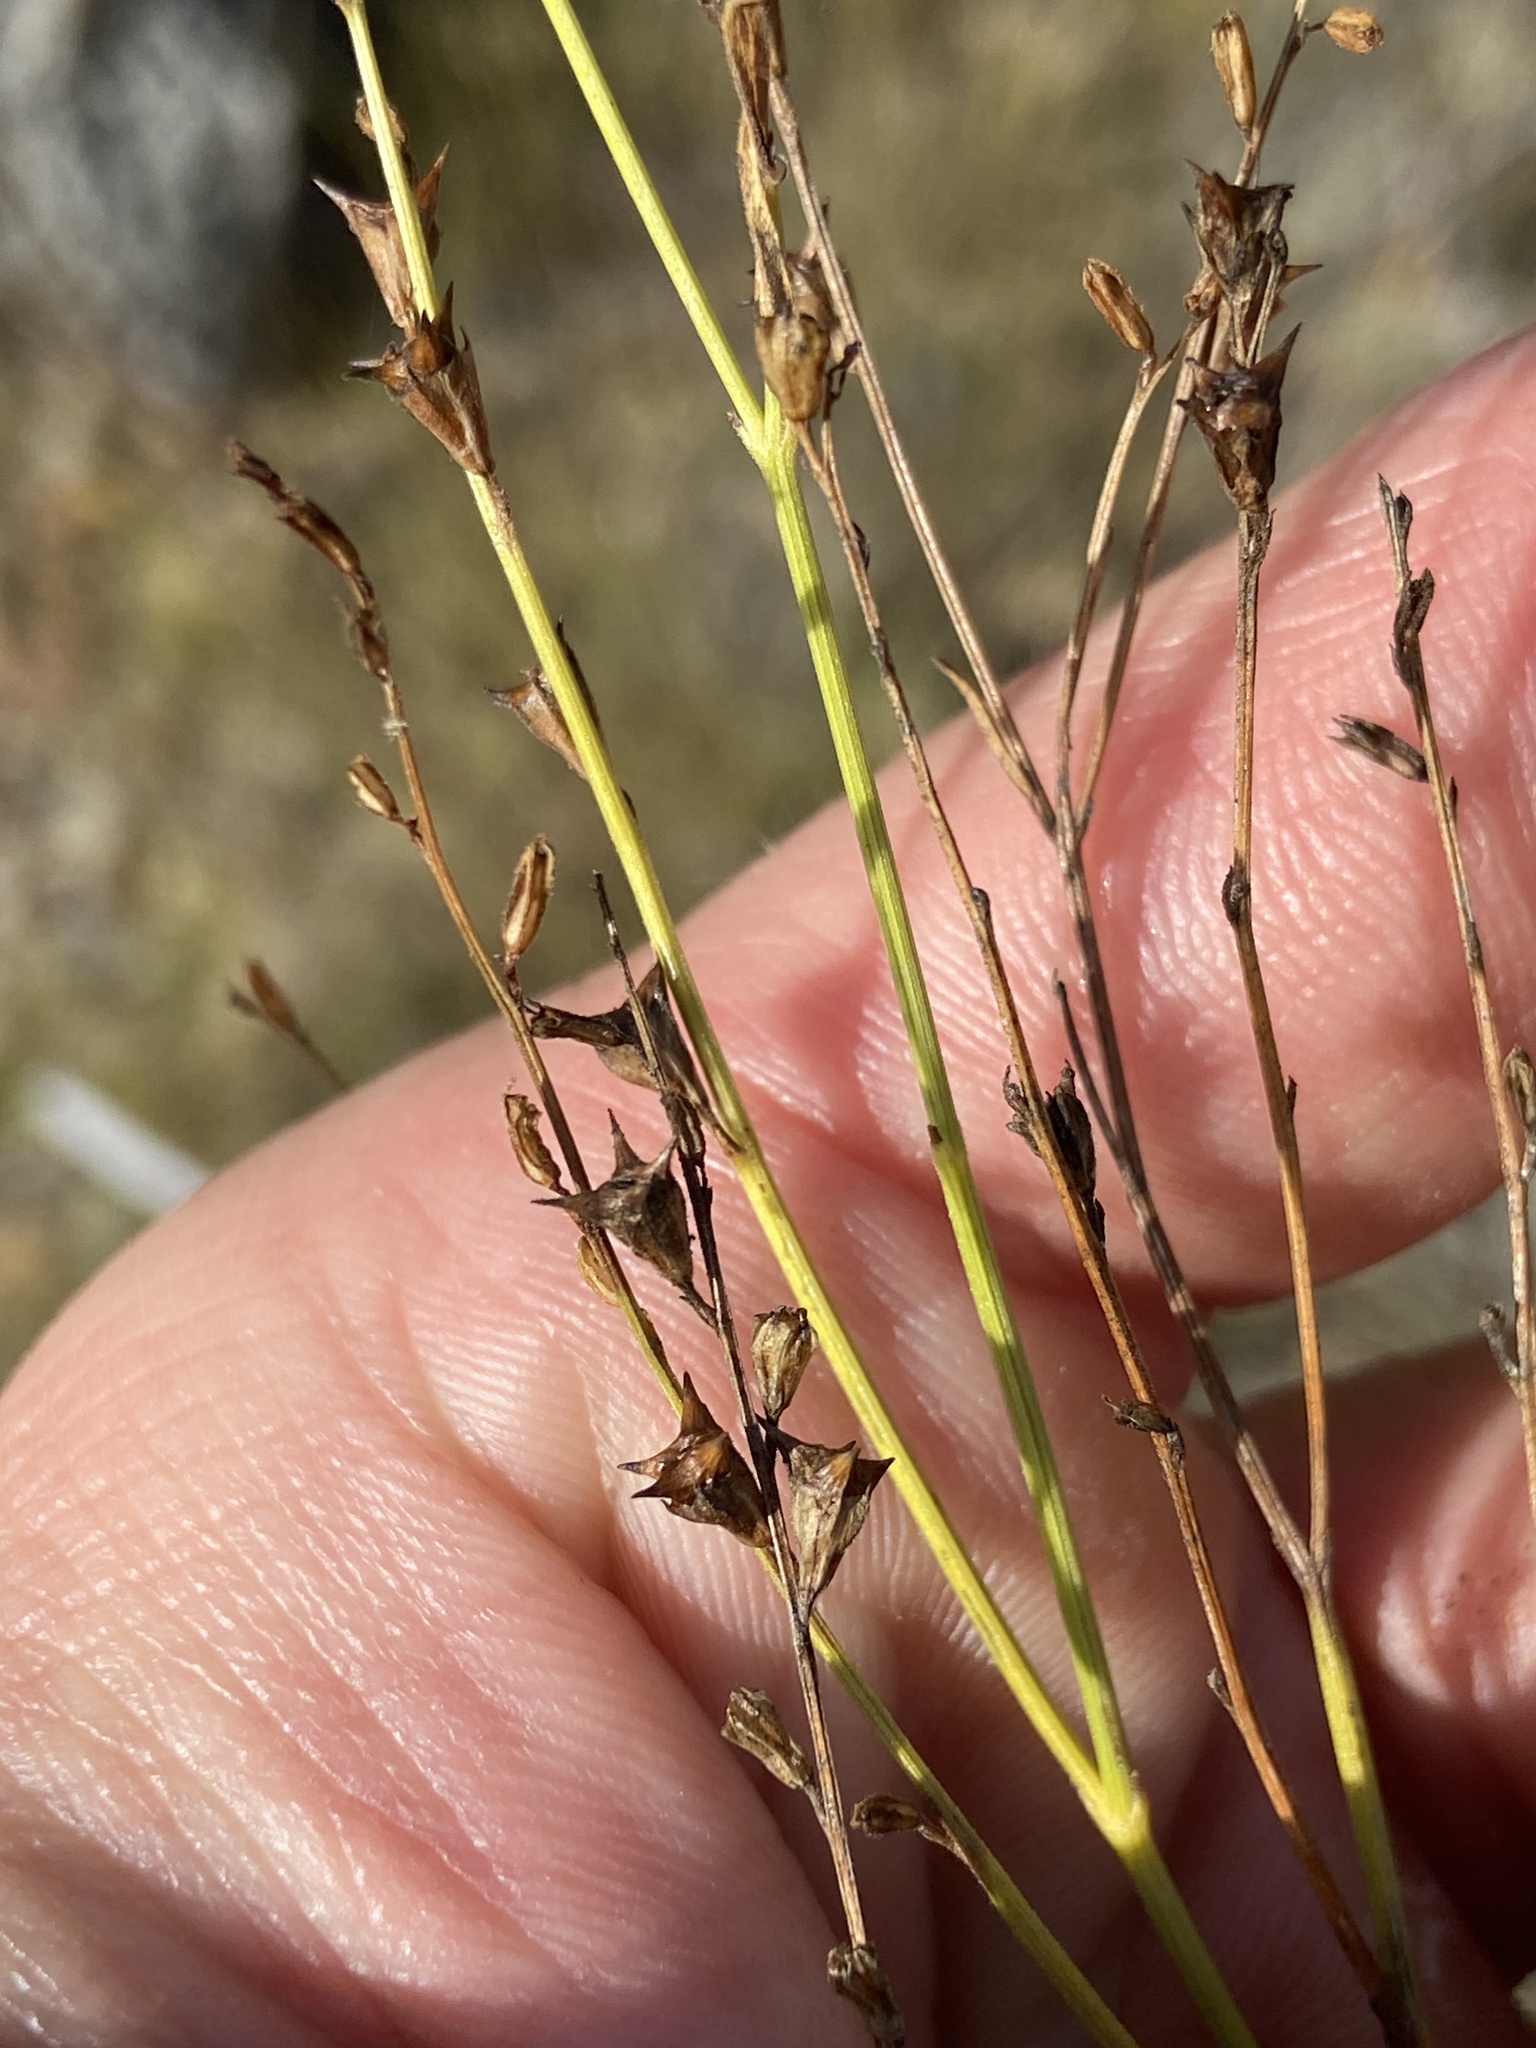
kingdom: Plantae
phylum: Tracheophyta
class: Magnoliopsida
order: Lamiales
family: Verbenaceae
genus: Tamonea
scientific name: Tamonea boxiana
